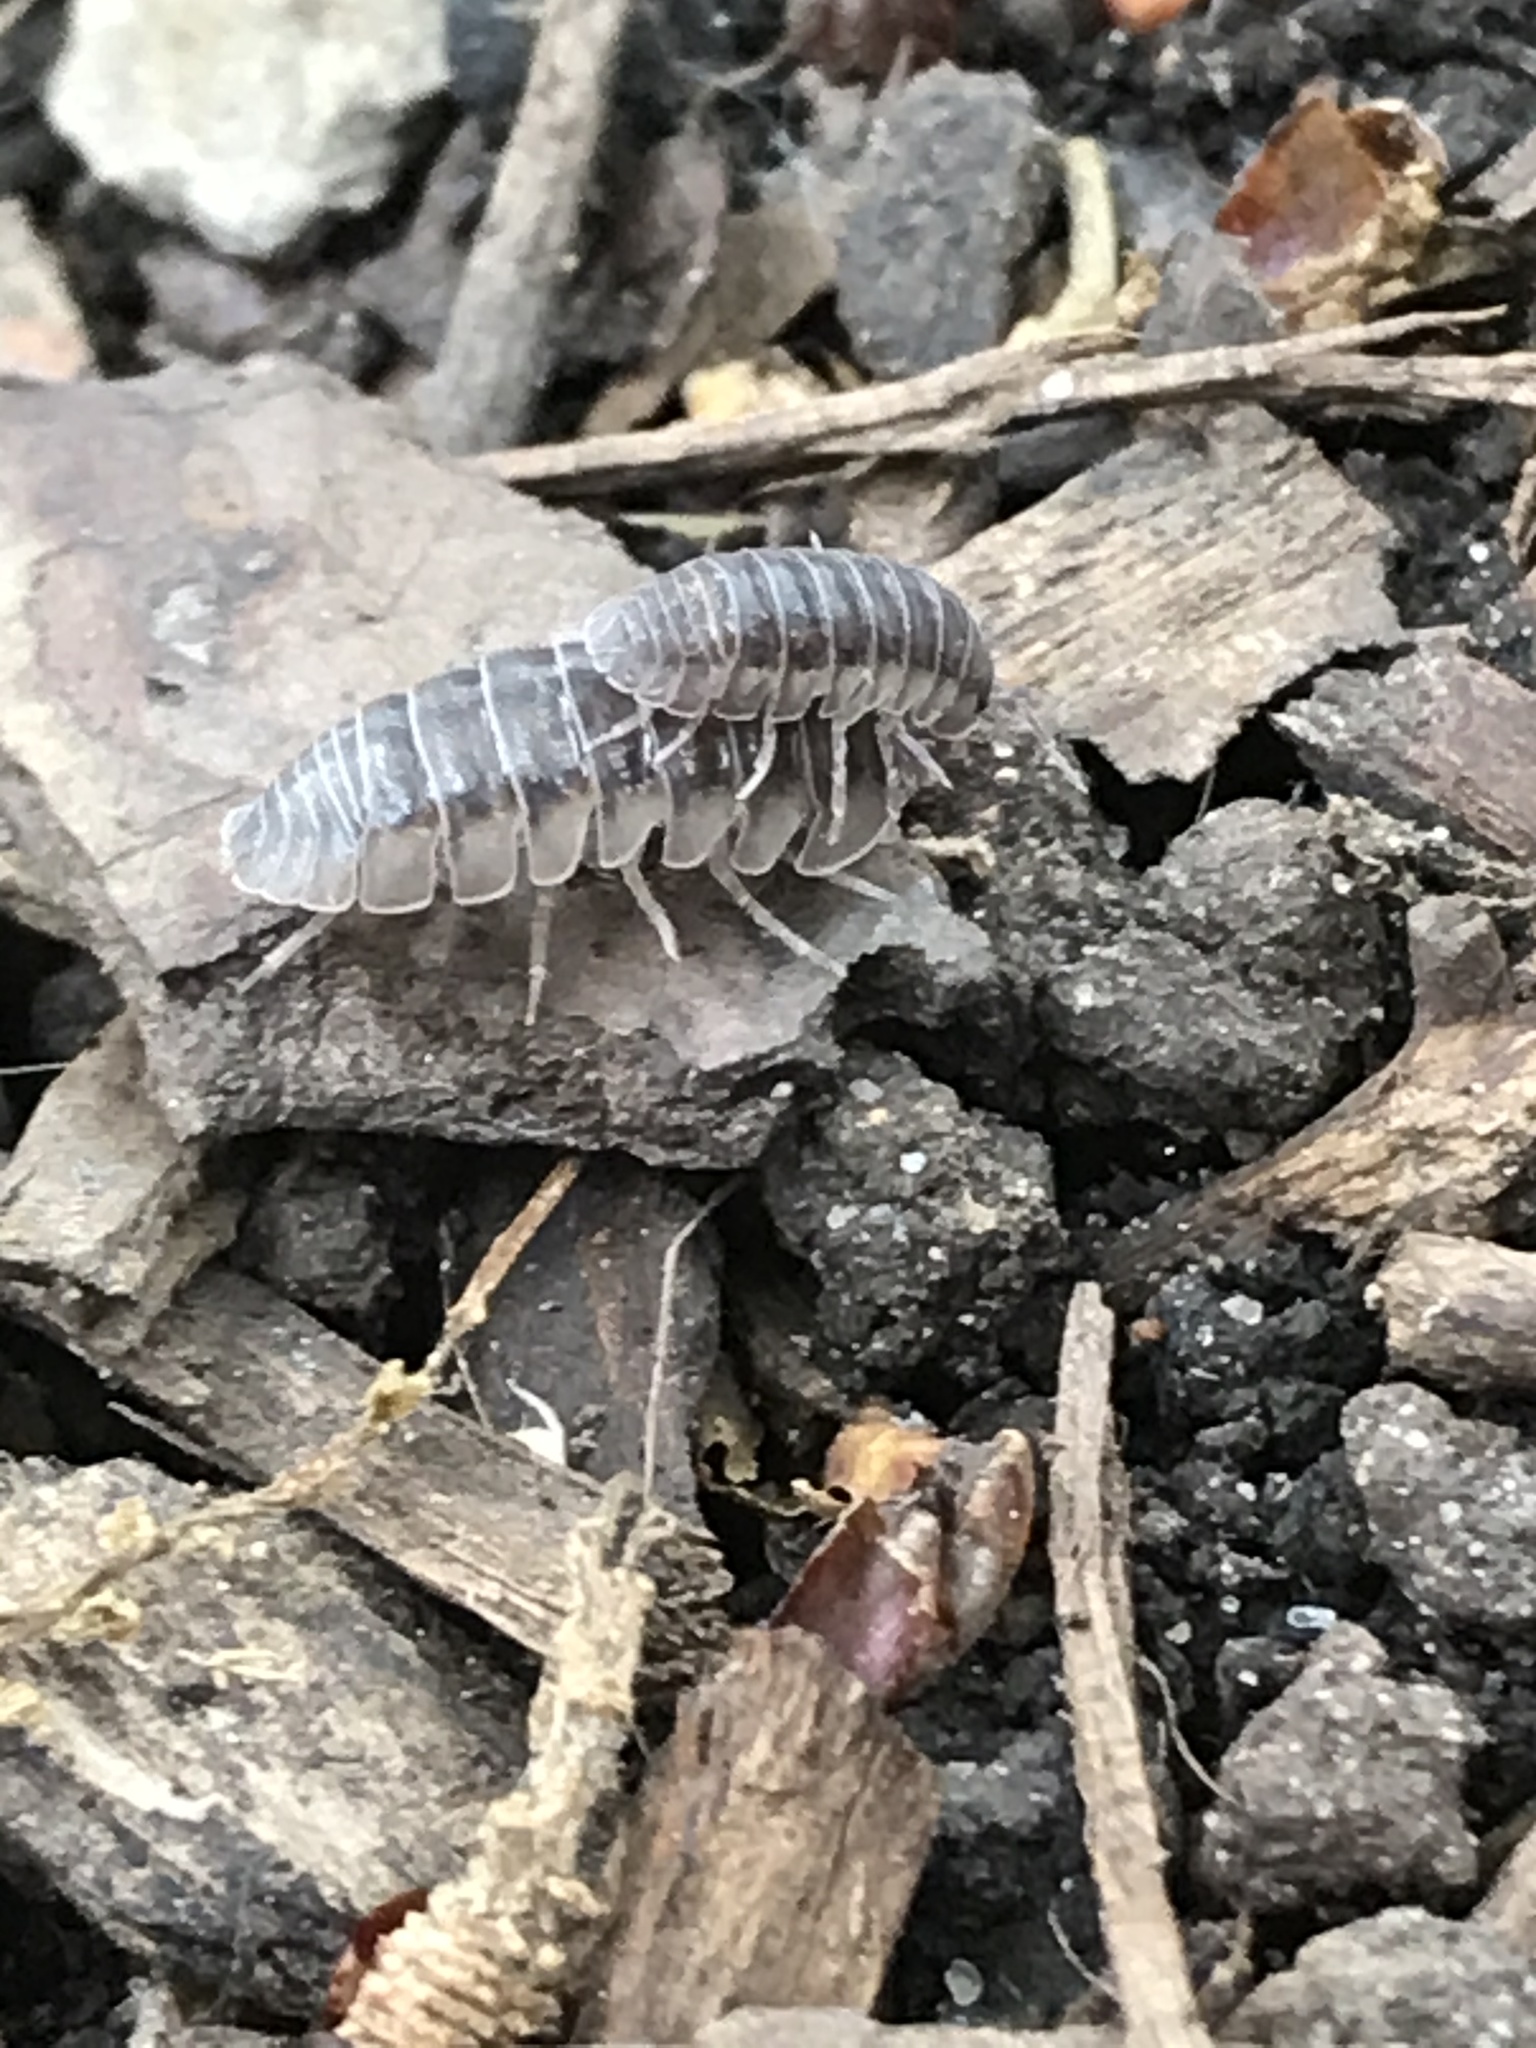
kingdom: Animalia
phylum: Arthropoda
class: Malacostraca
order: Isopoda
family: Armadillidiidae
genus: Armadillidium
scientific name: Armadillidium nasatum
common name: Isopod
